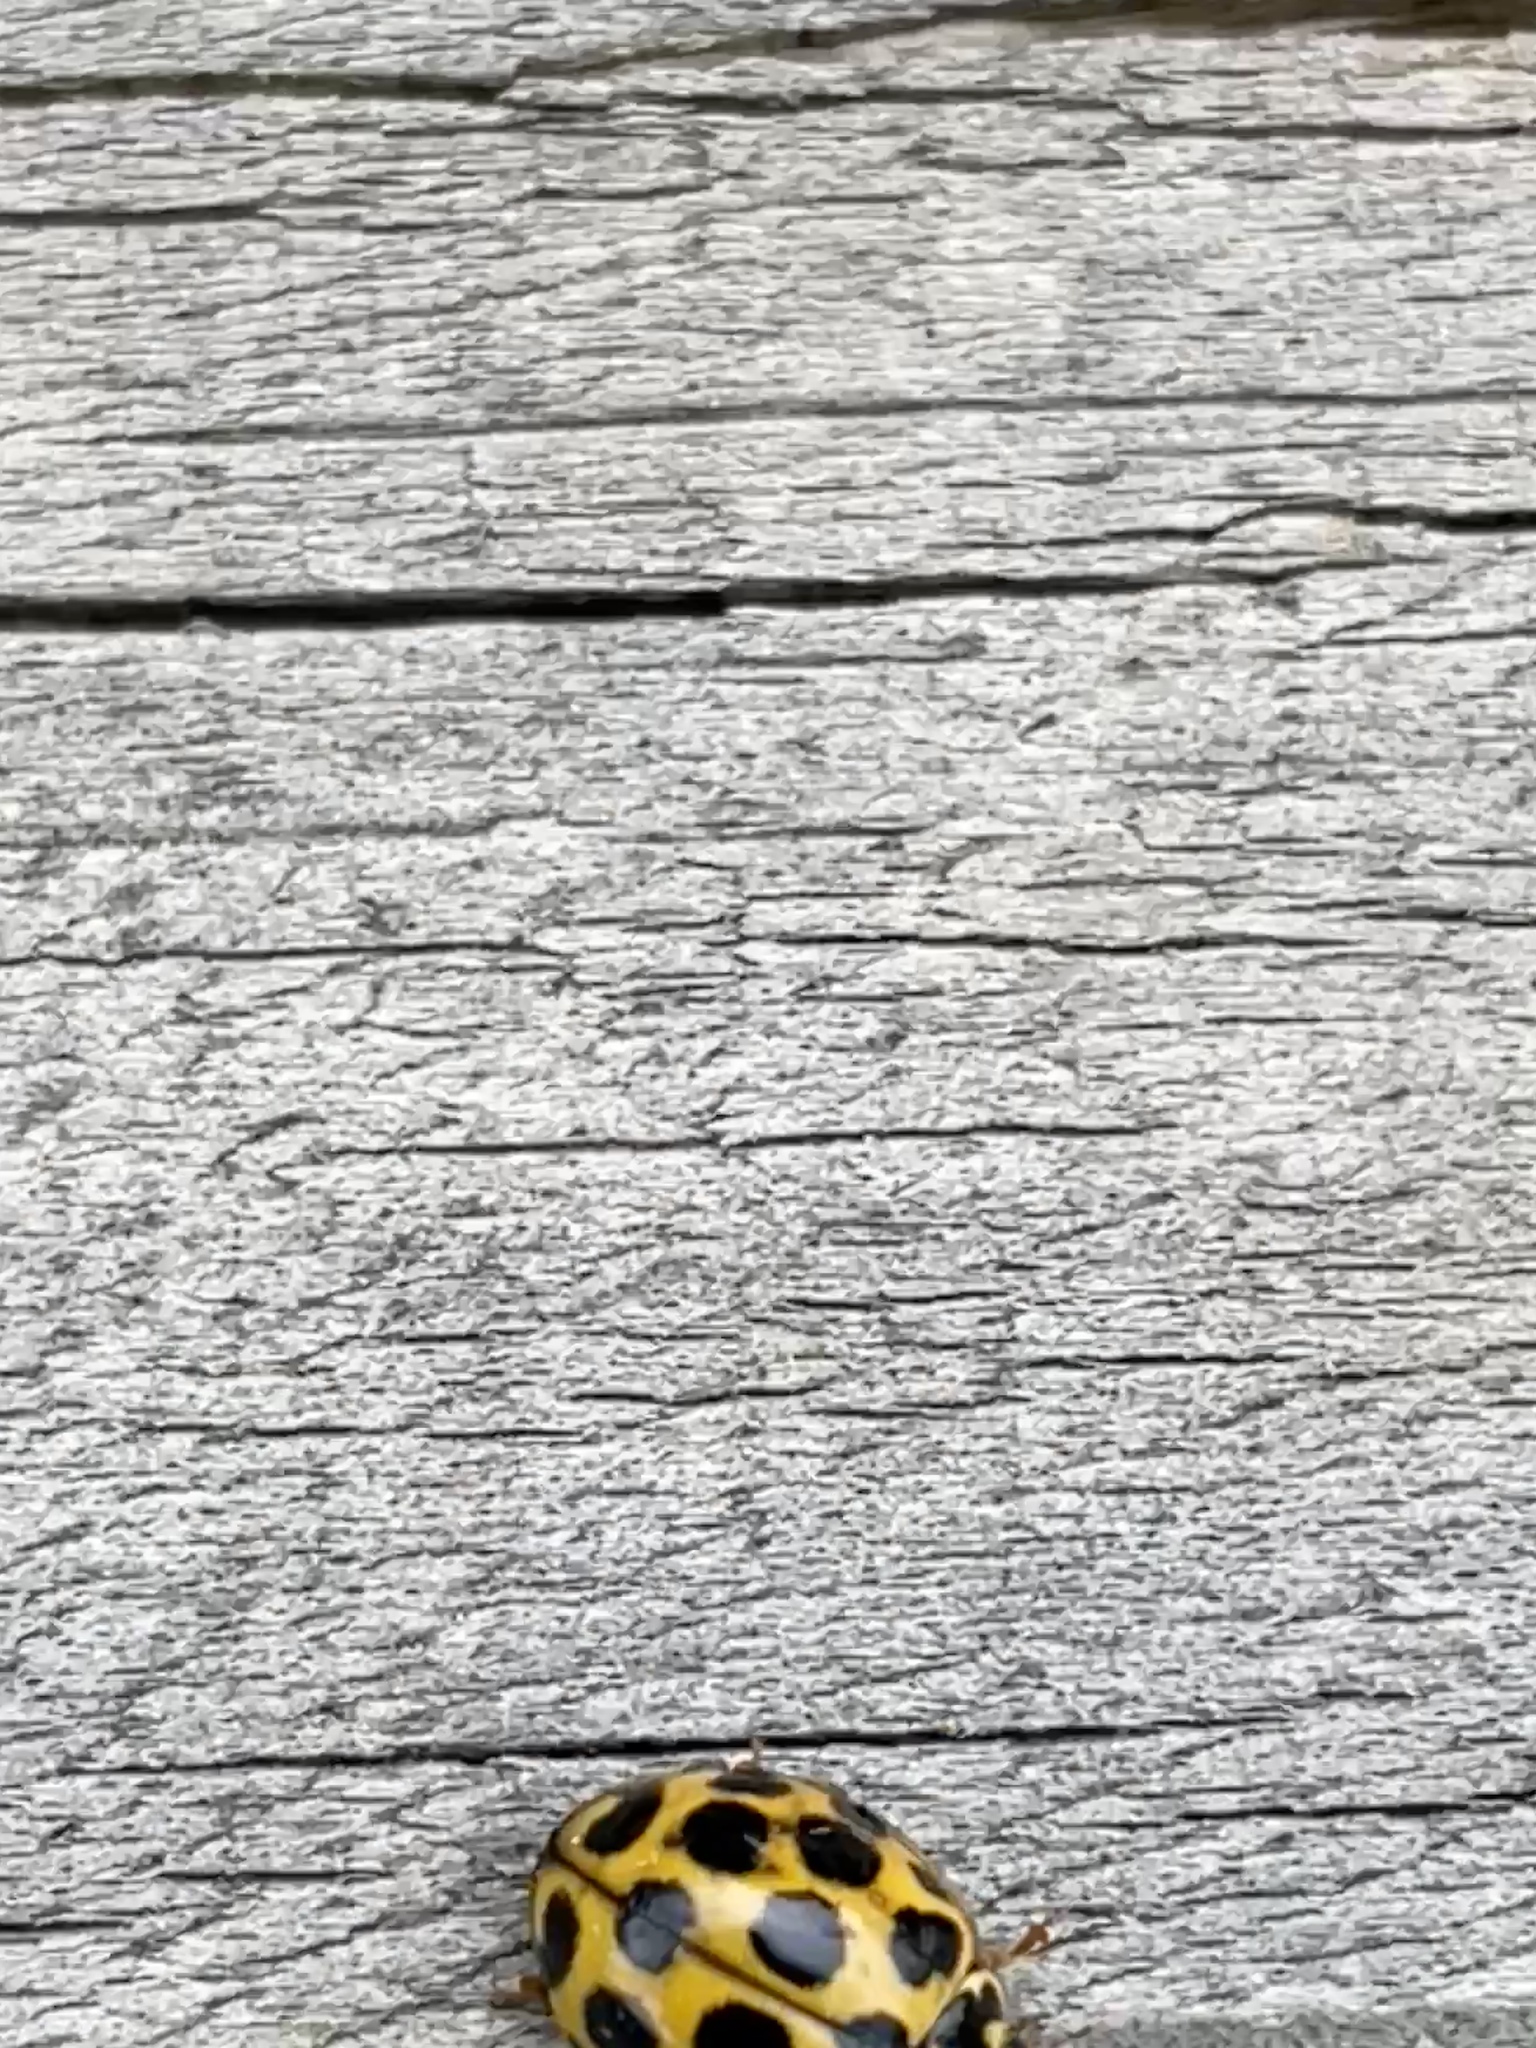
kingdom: Animalia
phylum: Arthropoda
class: Insecta
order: Coleoptera
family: Coccinellidae
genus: Harmonia
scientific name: Harmonia conformis
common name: Common spotted ladybird beetle
